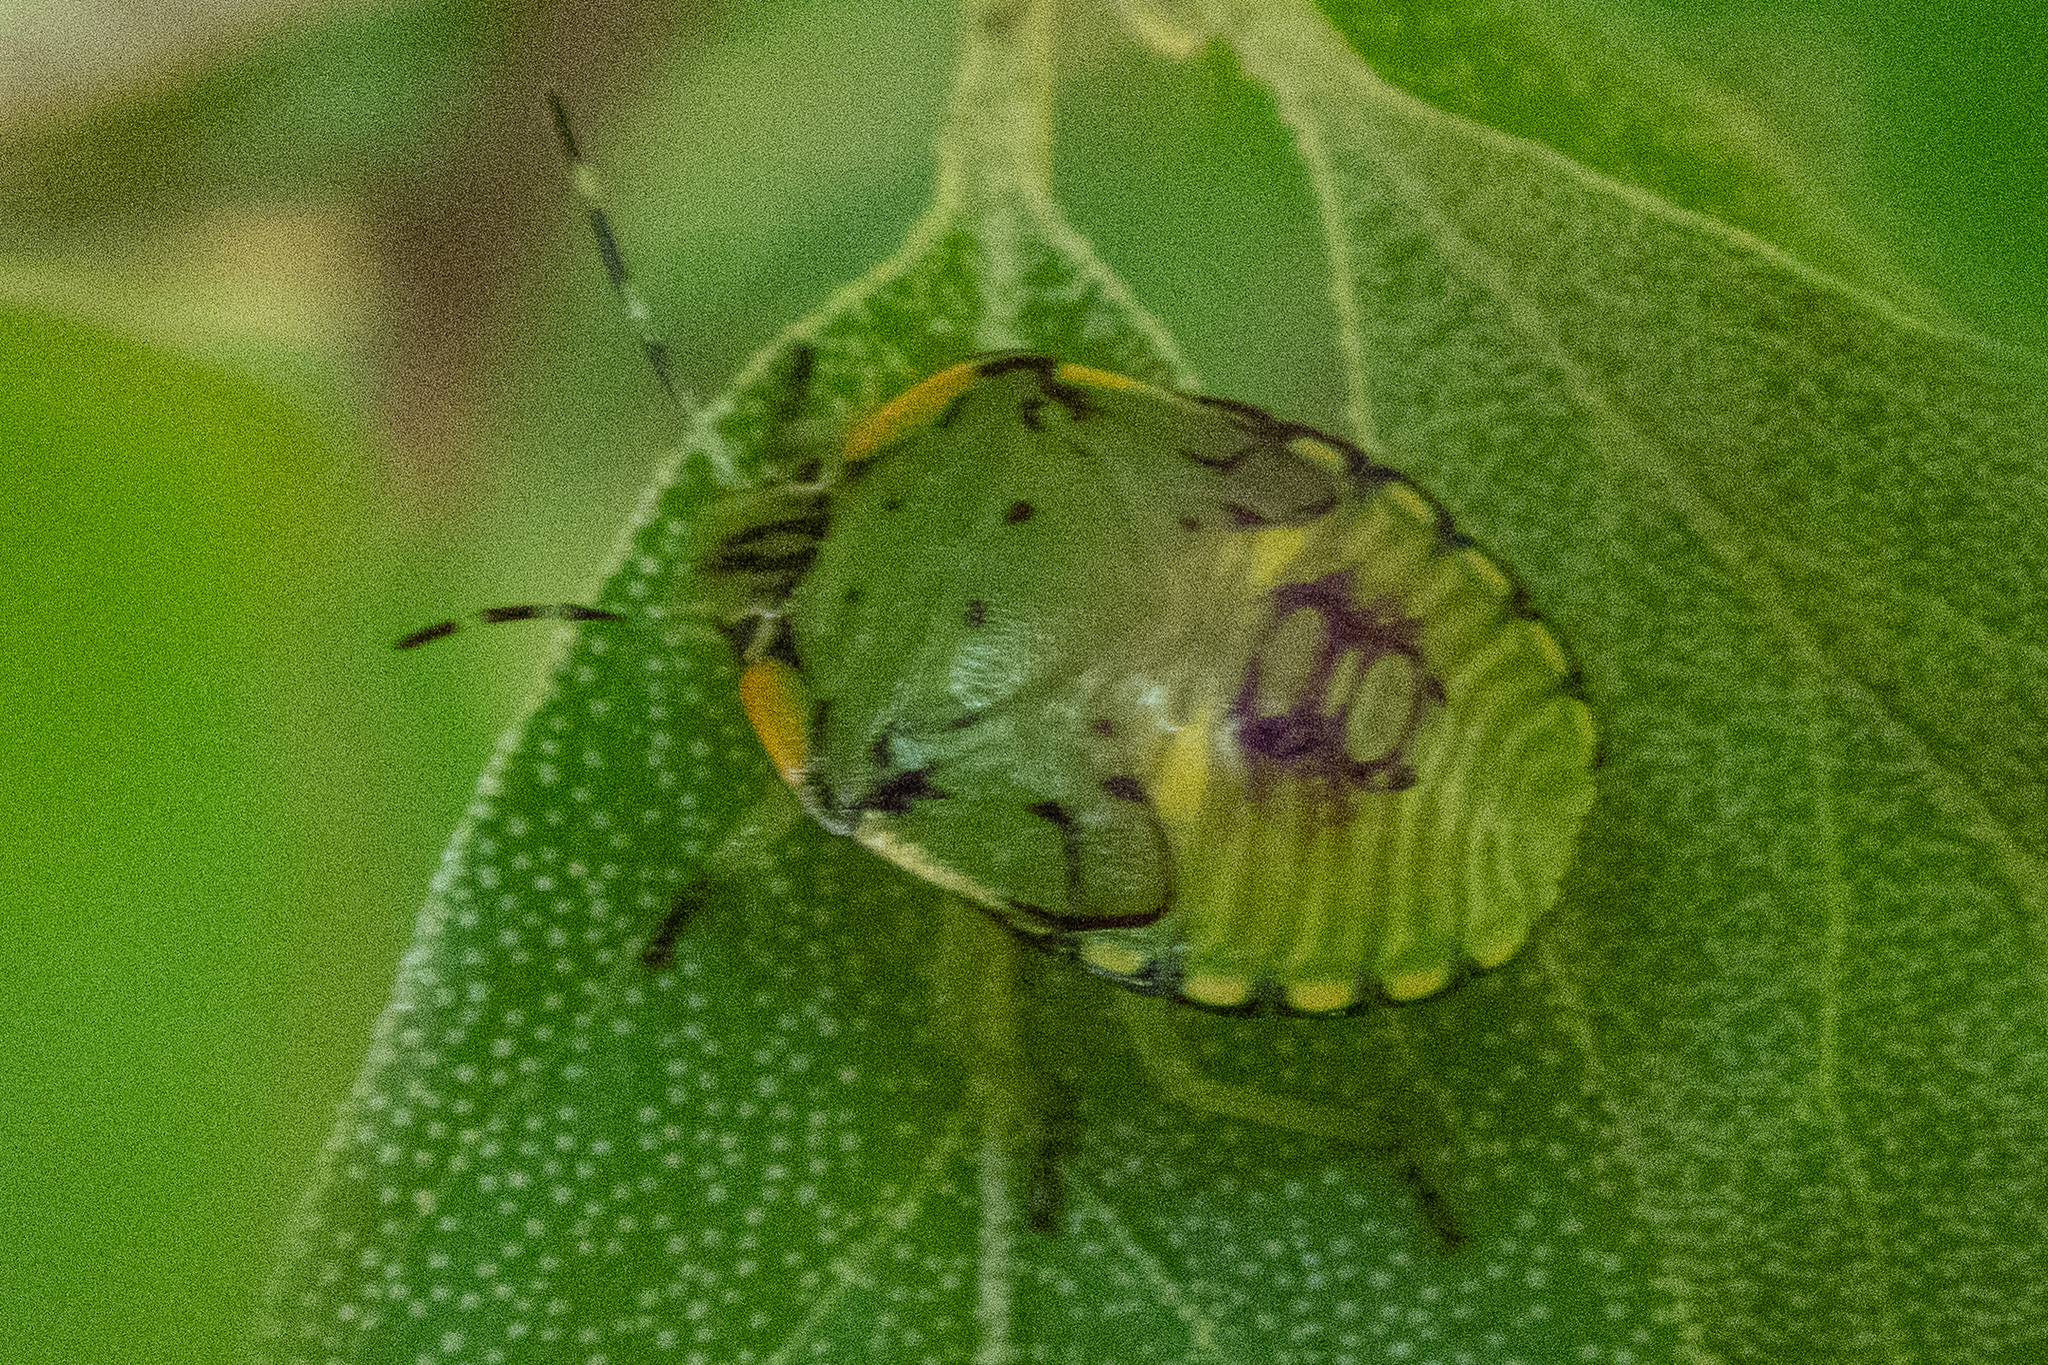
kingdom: Animalia
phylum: Arthropoda
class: Insecta
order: Hemiptera
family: Pentatomidae
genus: Chinavia
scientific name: Chinavia hilaris
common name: Green stink bug
